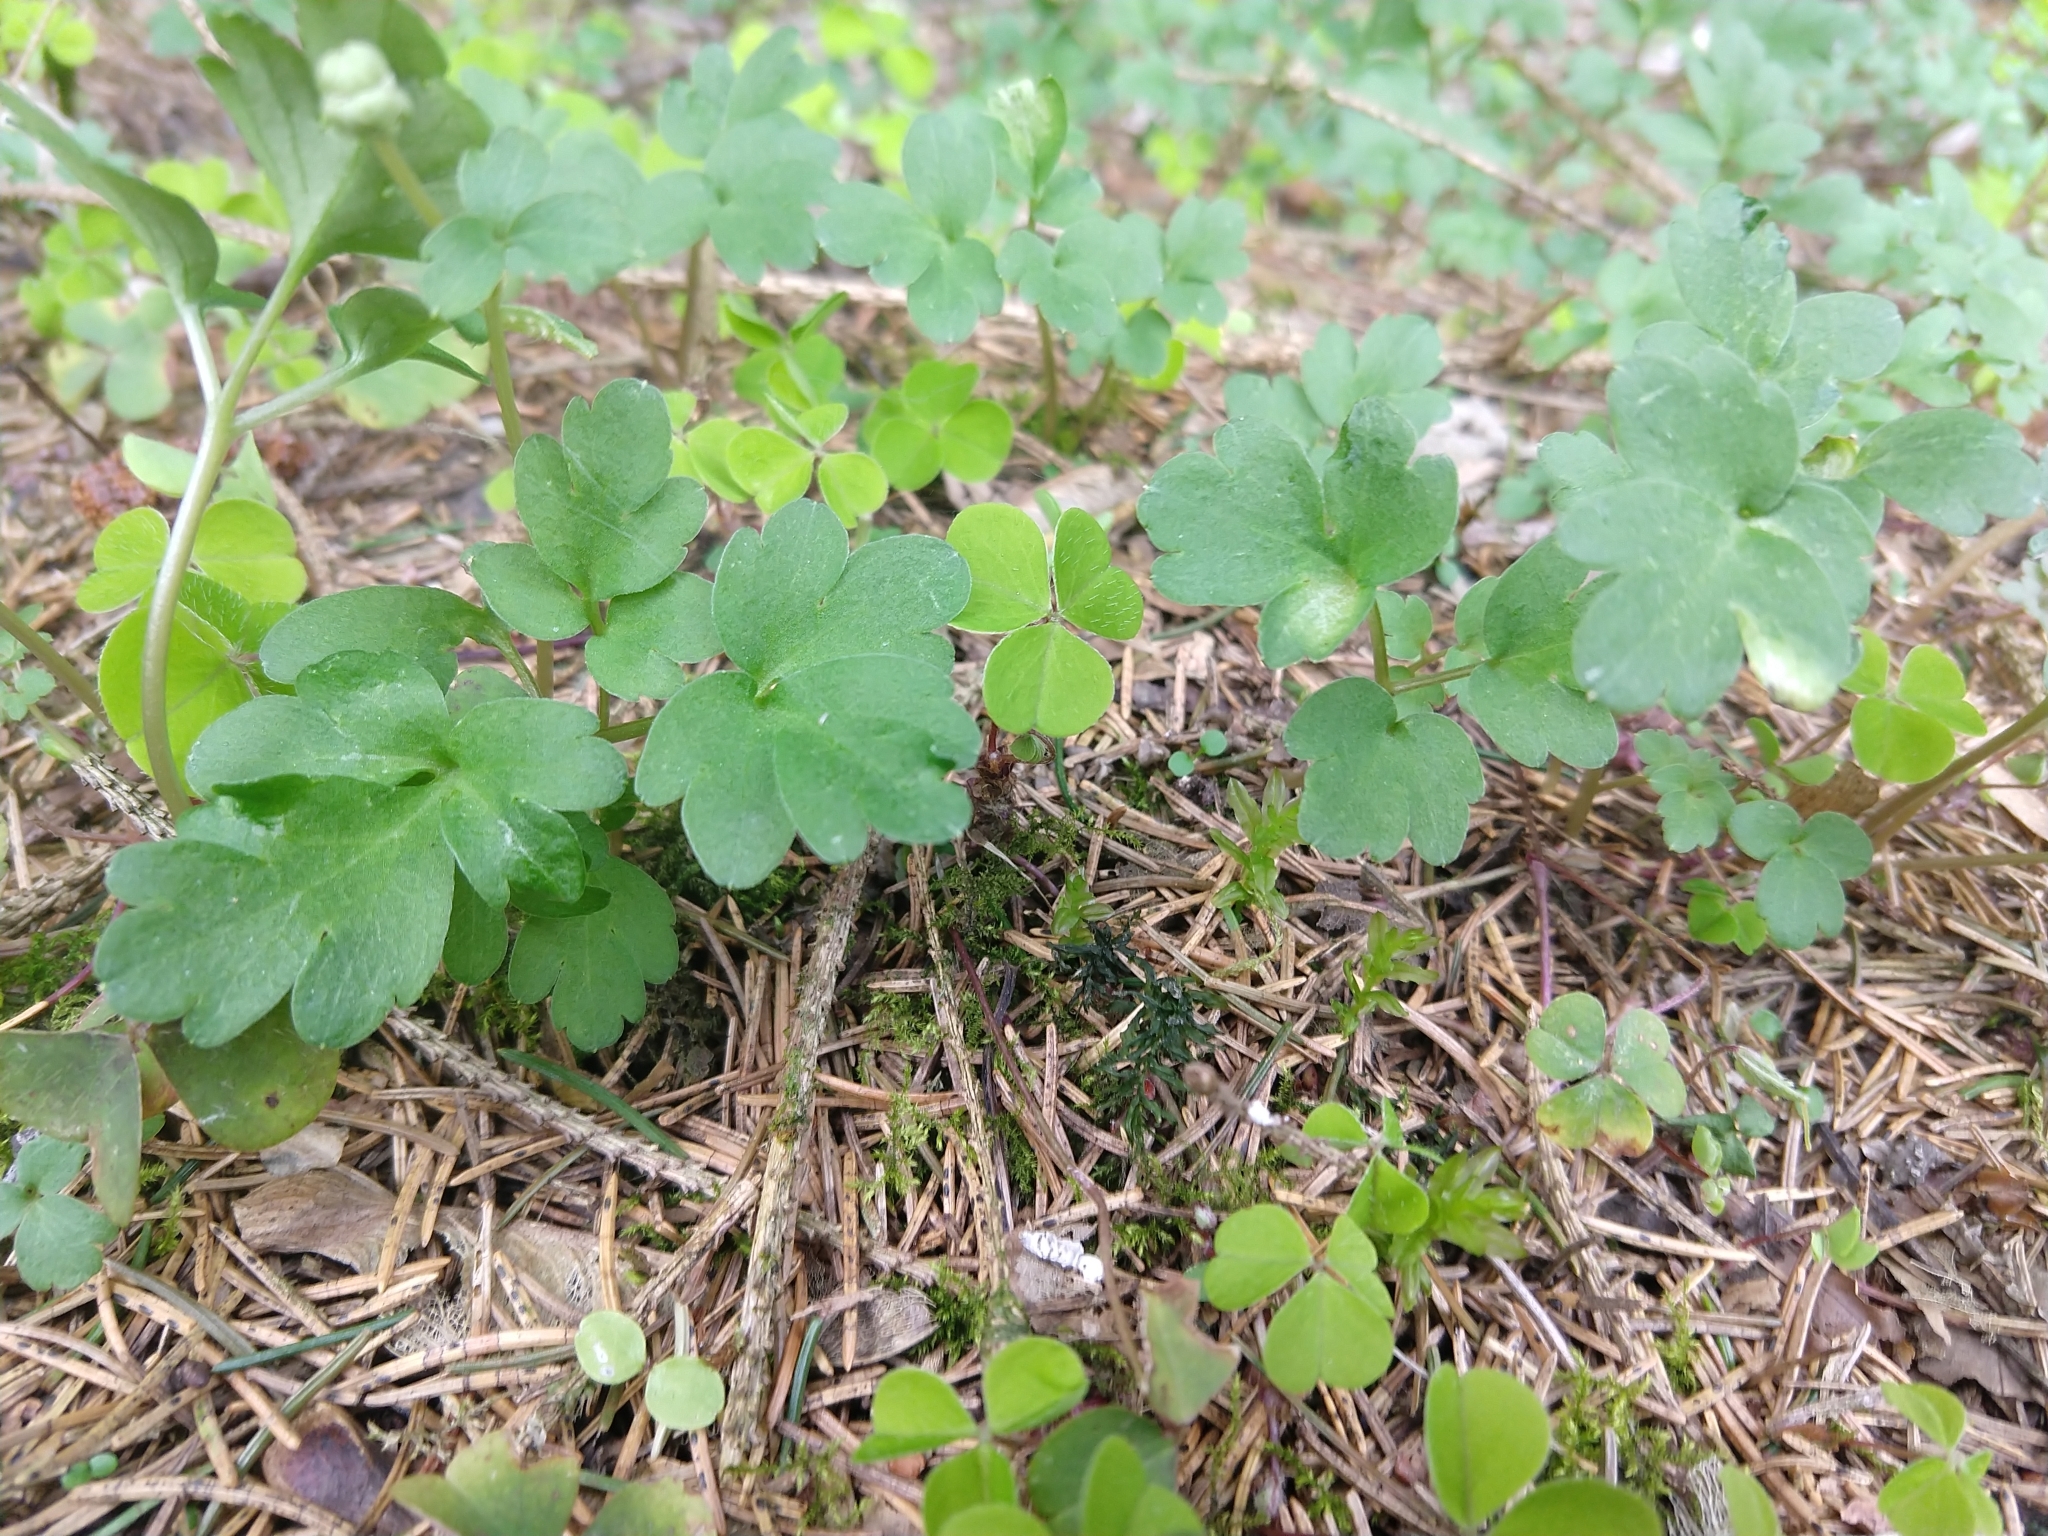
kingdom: Plantae
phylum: Tracheophyta
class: Magnoliopsida
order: Dipsacales
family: Viburnaceae
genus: Adoxa
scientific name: Adoxa moschatellina
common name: Moschatel
